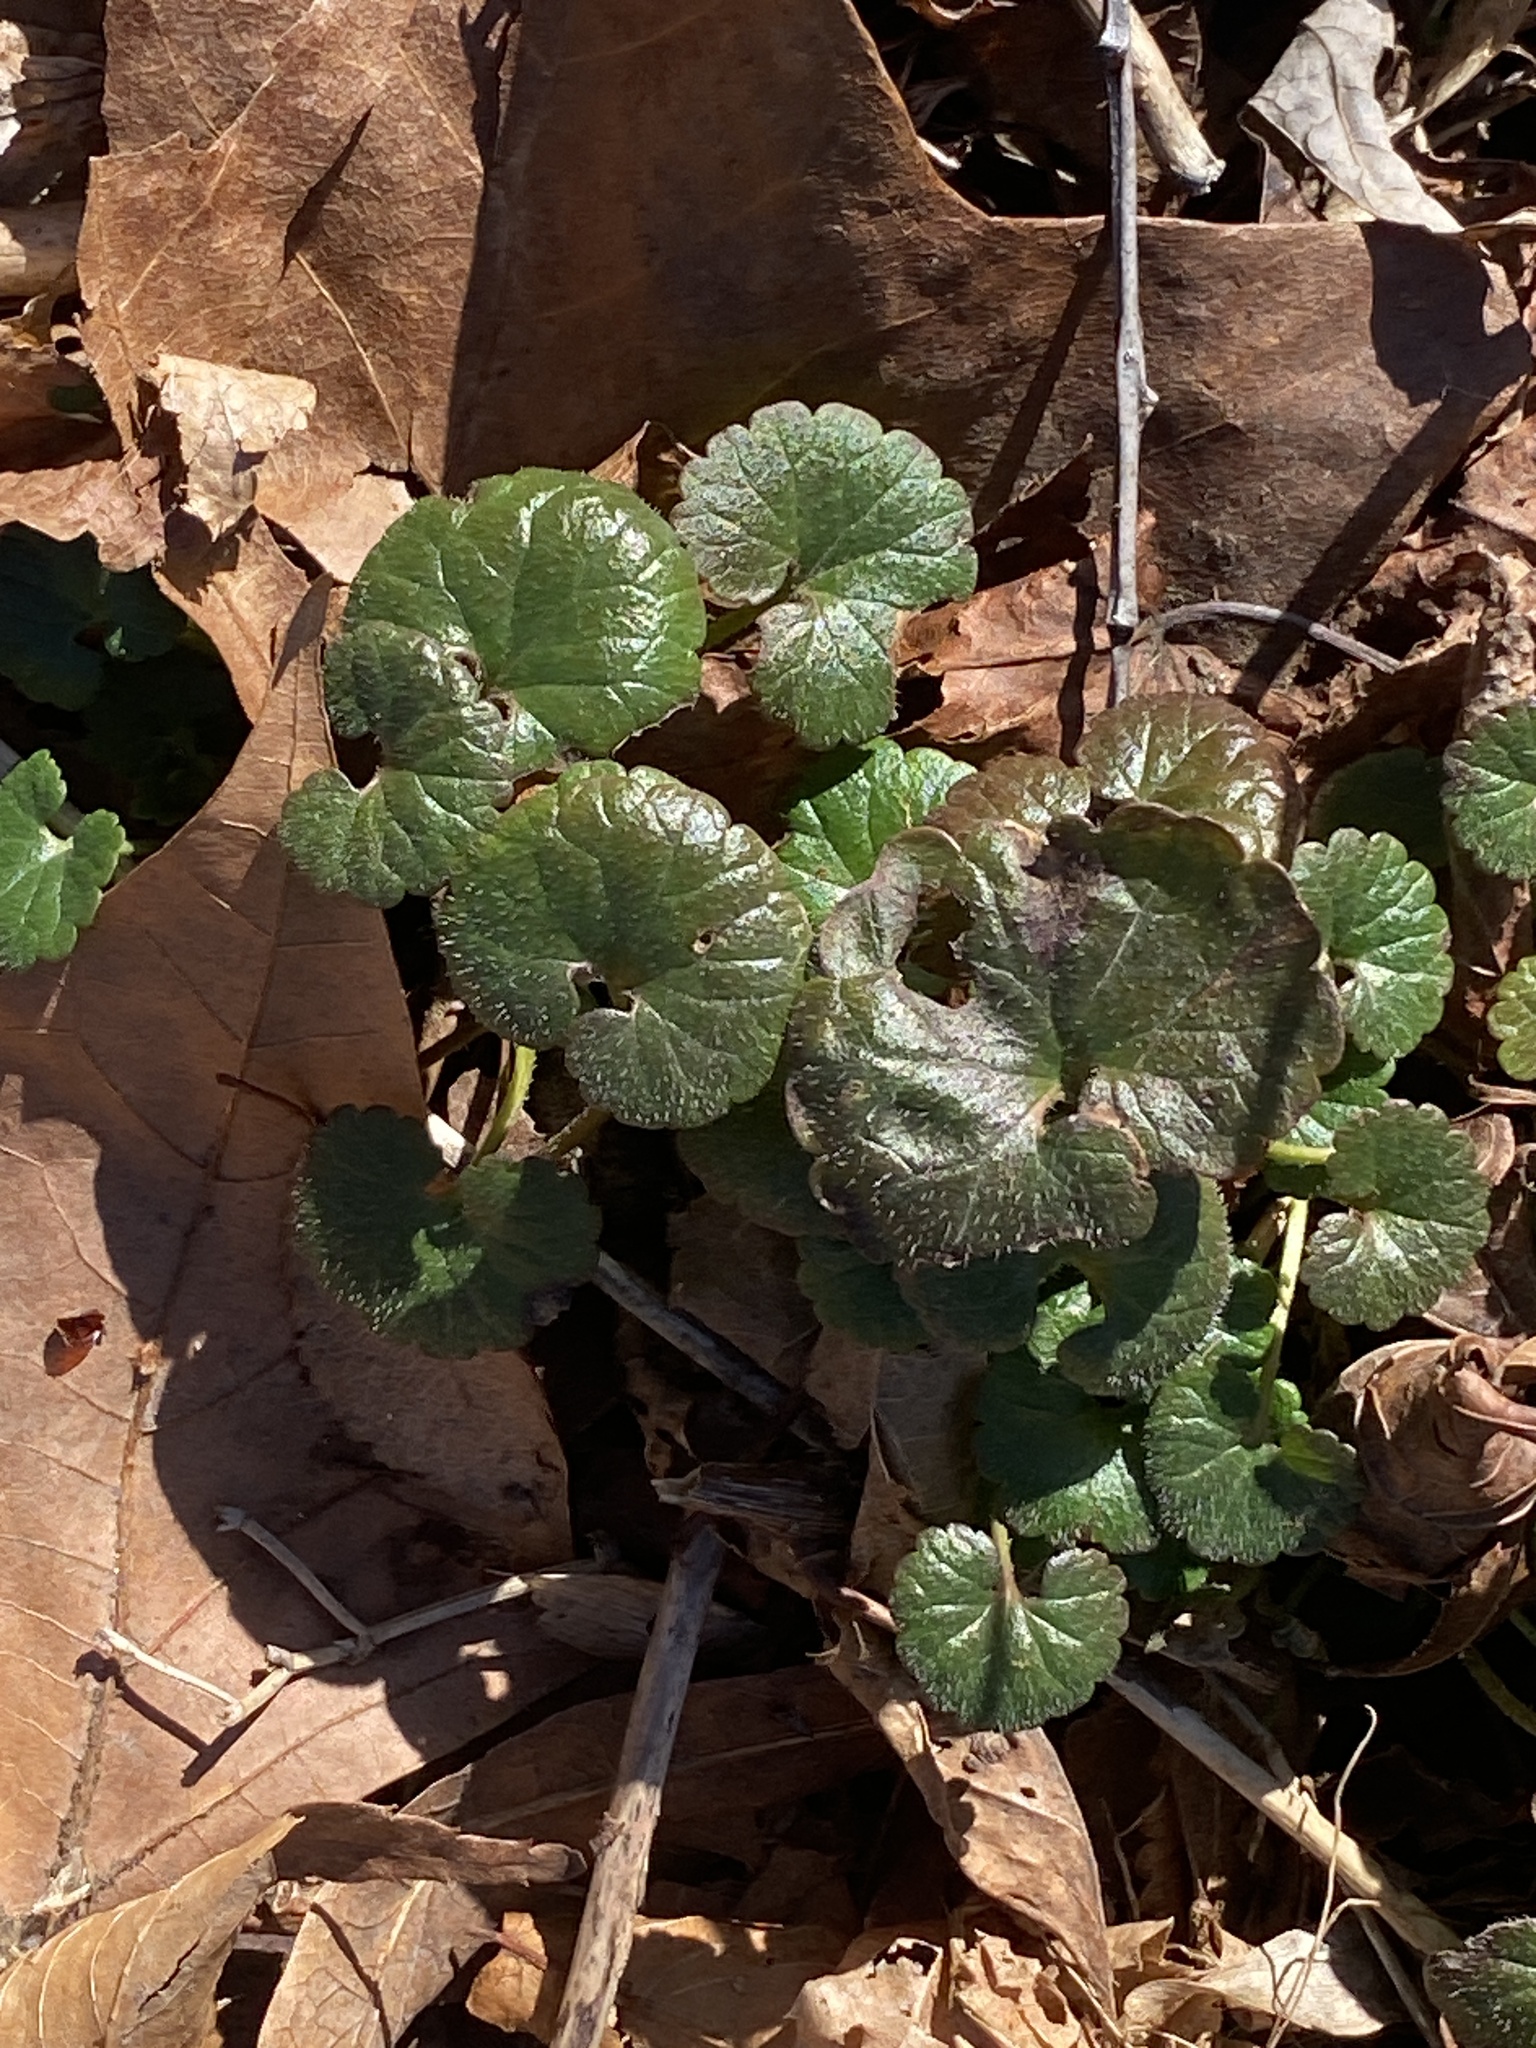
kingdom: Plantae
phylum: Tracheophyta
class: Magnoliopsida
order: Lamiales
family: Lamiaceae
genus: Glechoma
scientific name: Glechoma hederacea
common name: Ground ivy
